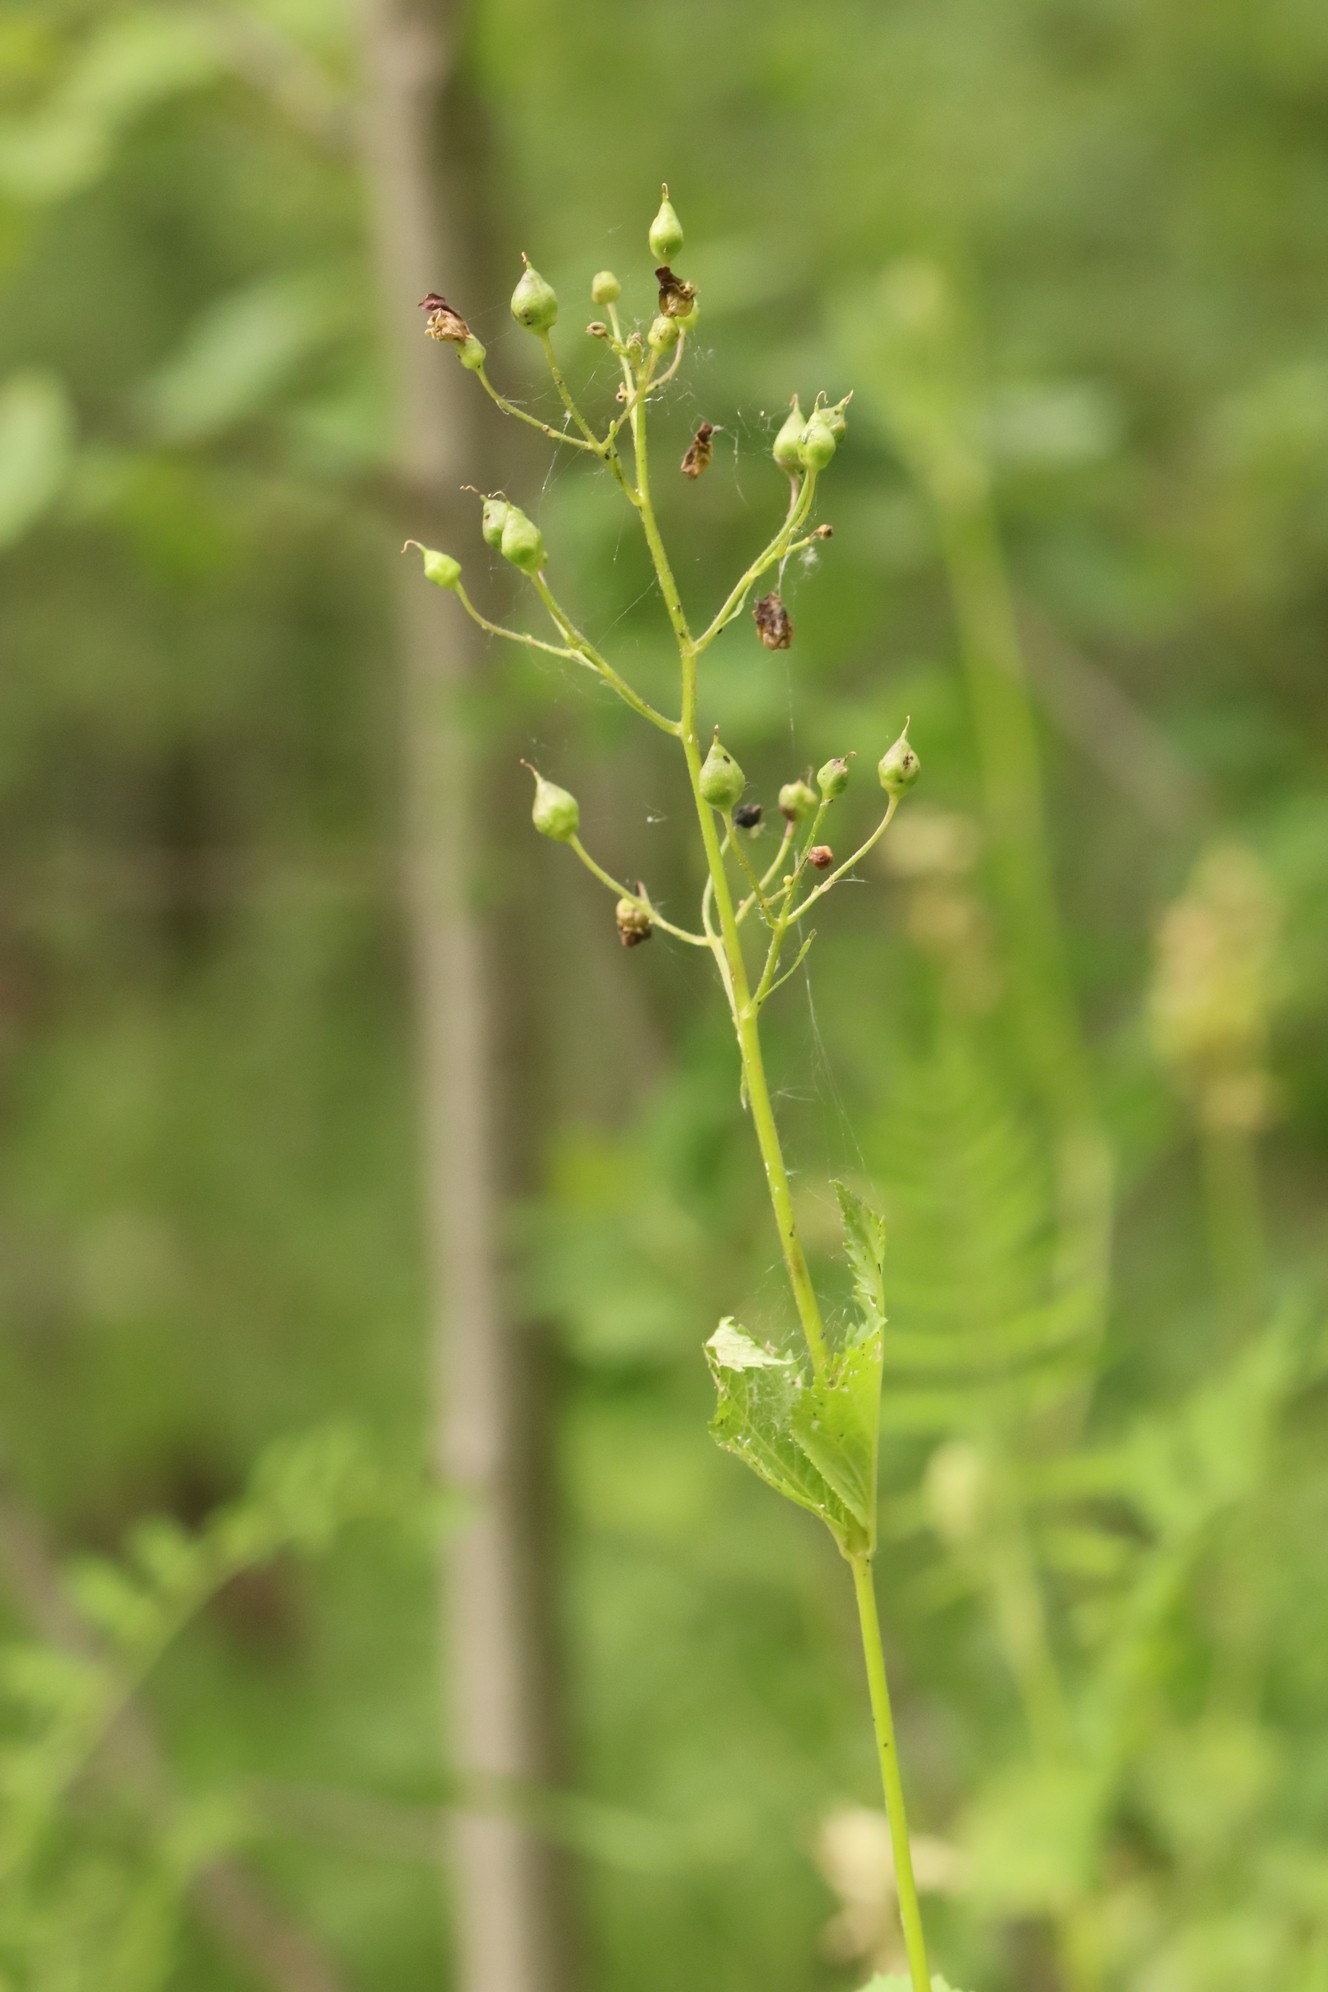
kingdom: Plantae
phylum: Tracheophyta
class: Magnoliopsida
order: Lamiales
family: Scrophulariaceae
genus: Scrophularia
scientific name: Scrophularia nodosa
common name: Common figwort
